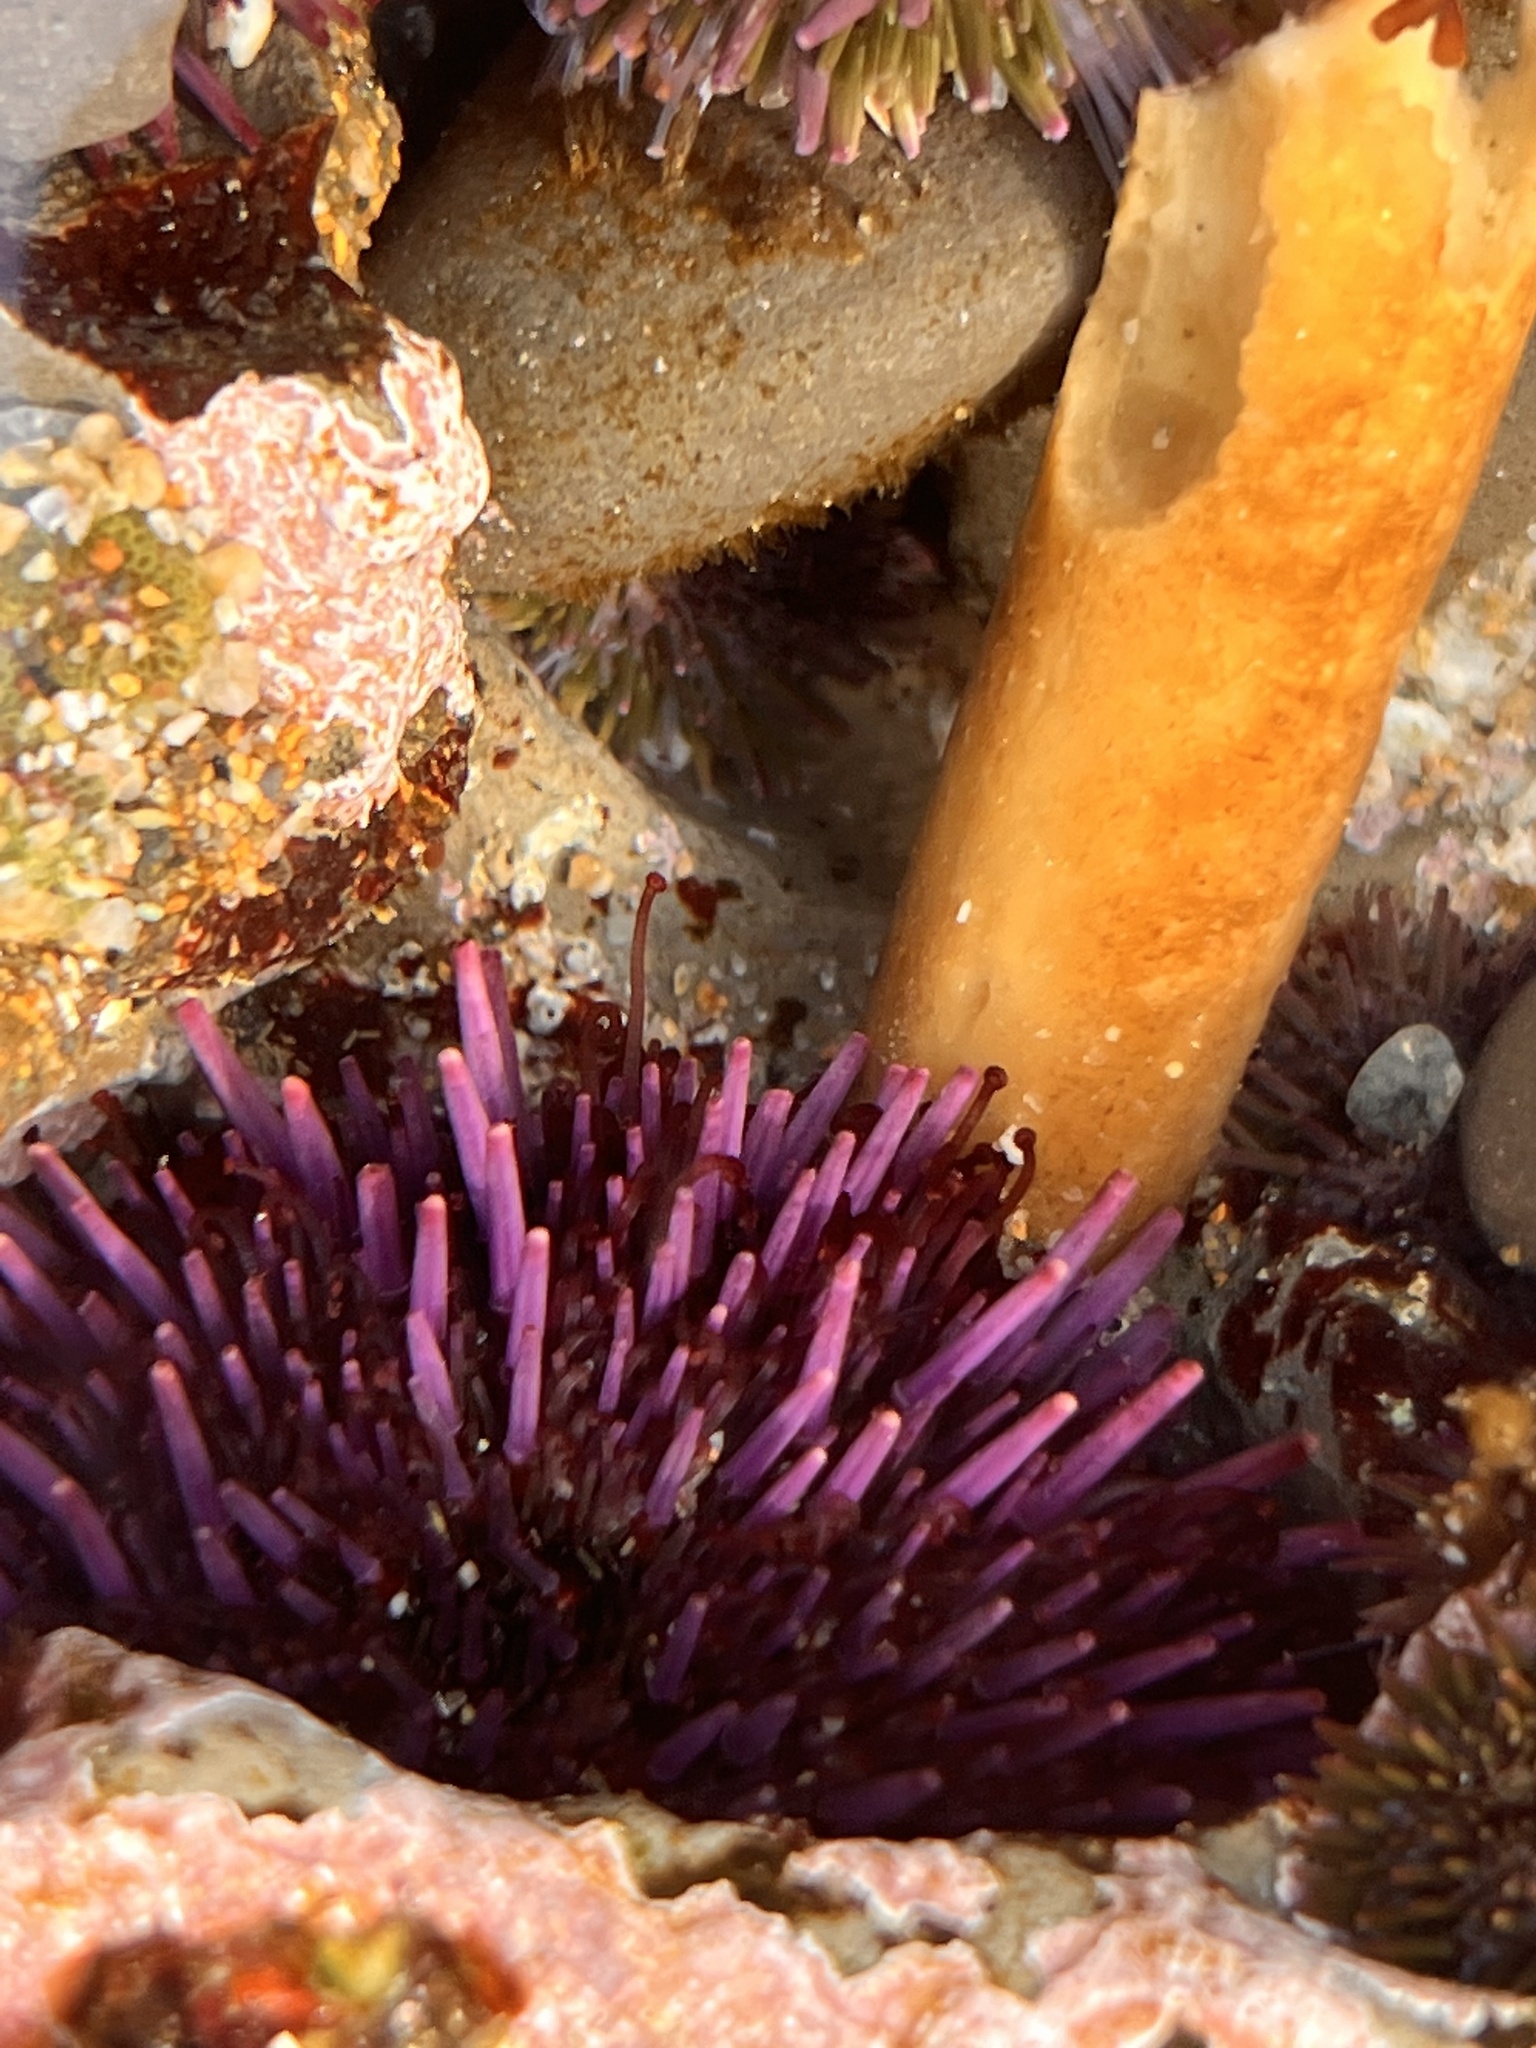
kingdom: Animalia
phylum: Echinodermata
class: Echinoidea
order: Camarodonta
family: Strongylocentrotidae
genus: Strongylocentrotus
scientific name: Strongylocentrotus purpuratus
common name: Purple sea urchin
